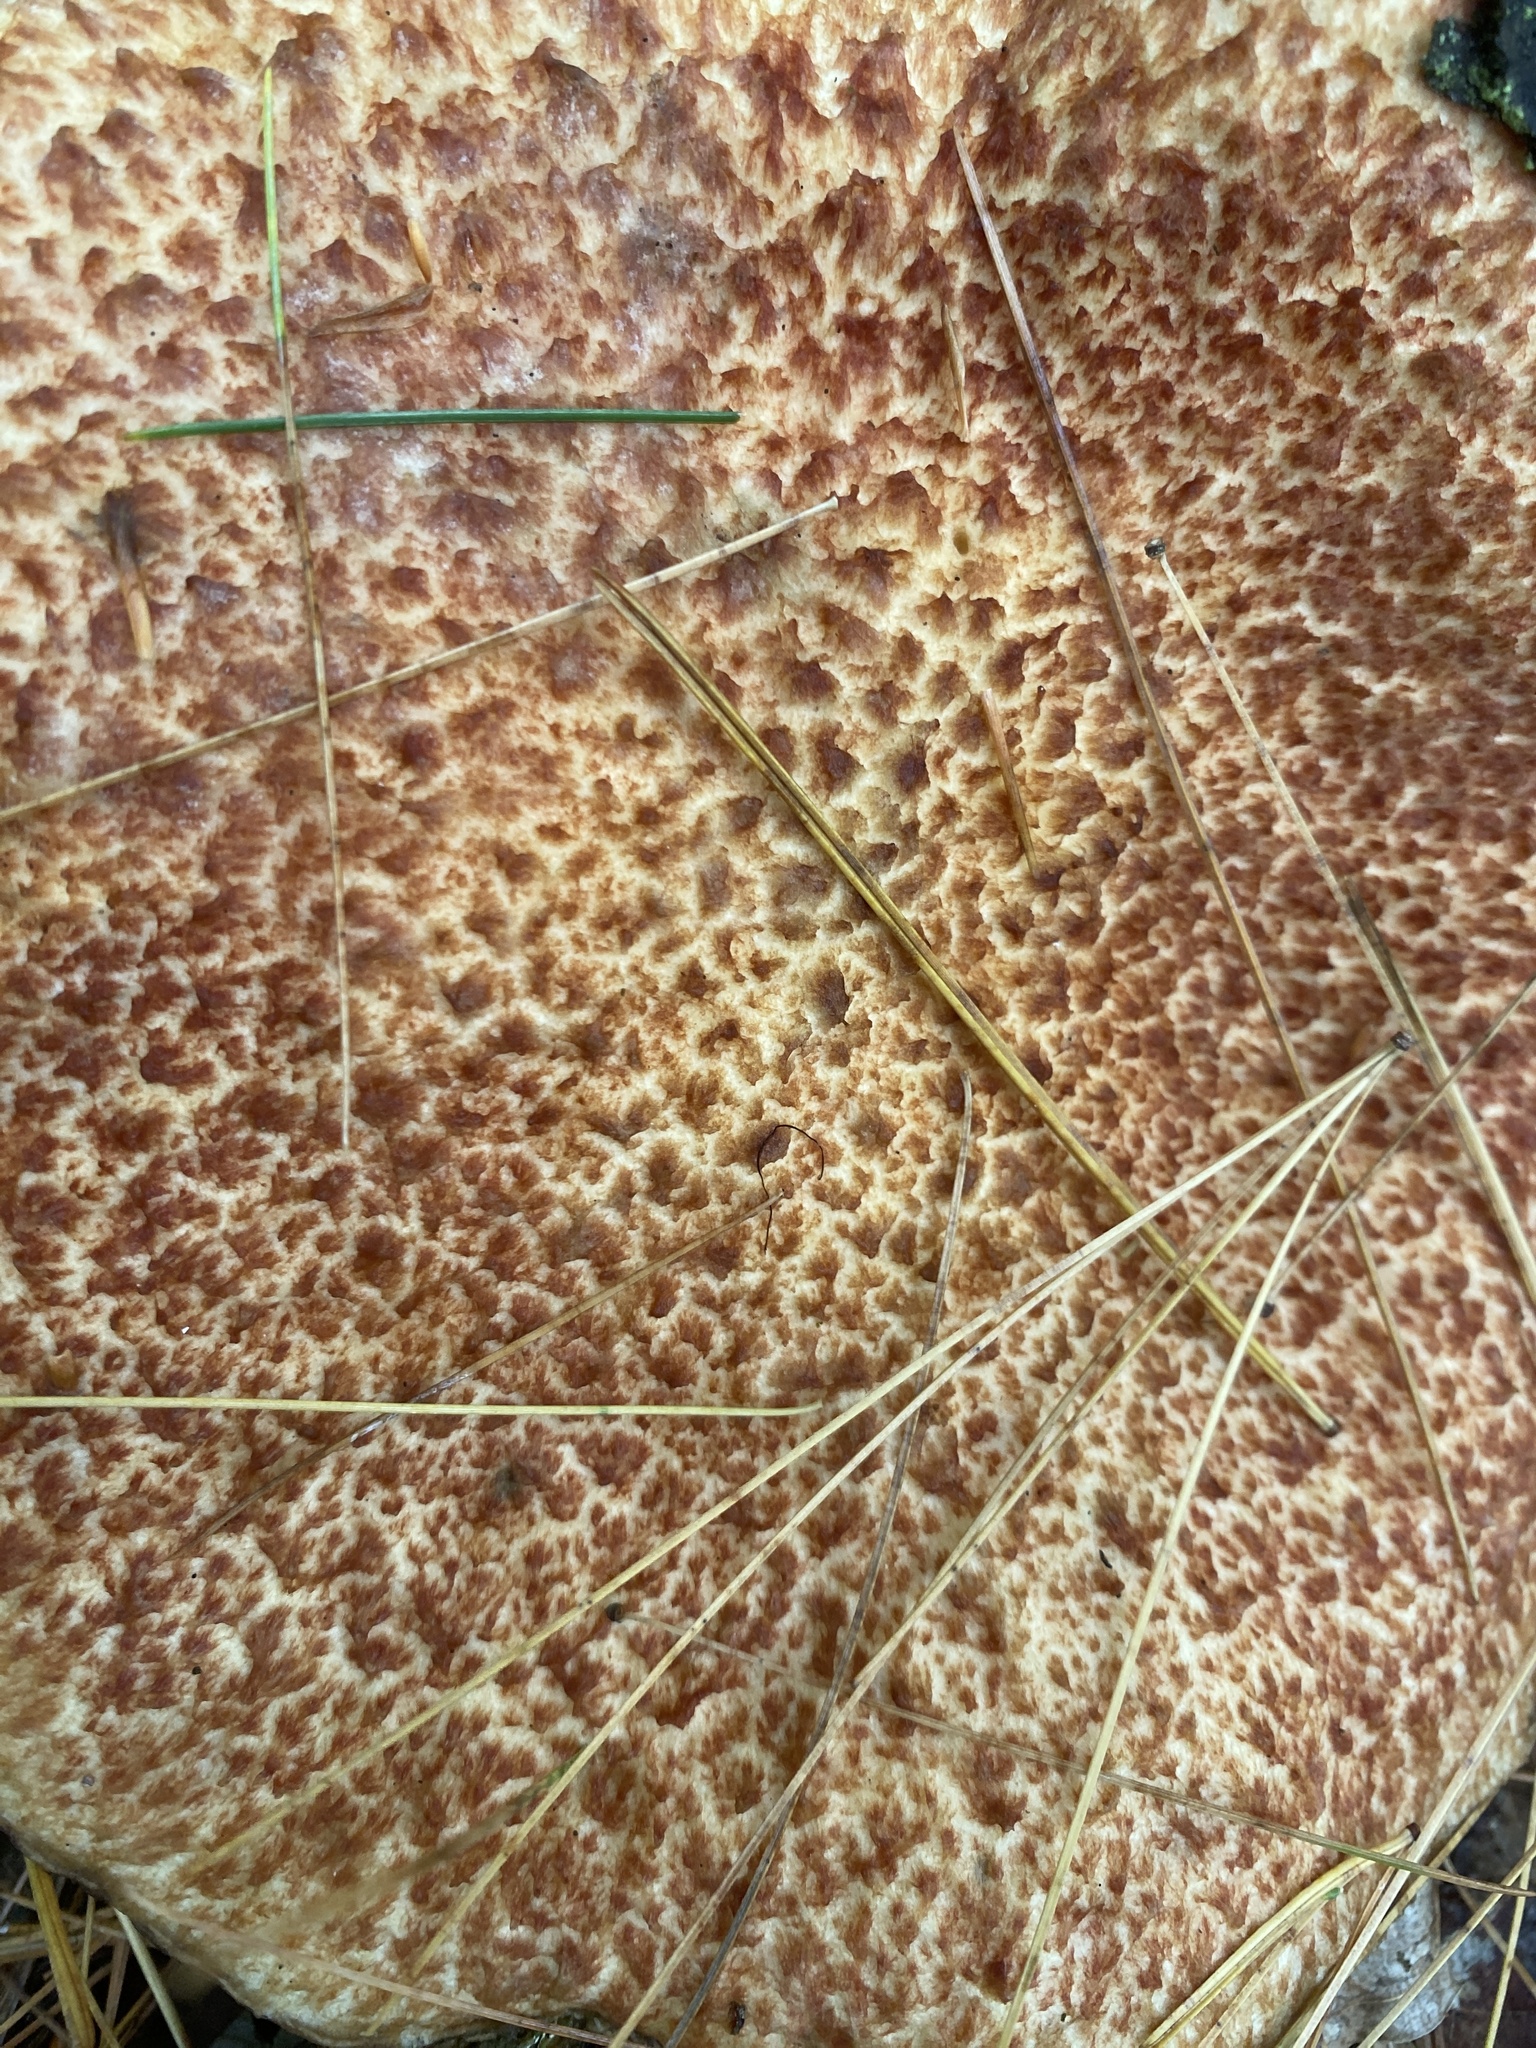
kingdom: Fungi
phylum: Basidiomycota
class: Agaricomycetes
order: Boletales
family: Suillaceae
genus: Suillus
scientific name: Suillus spraguei
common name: Painted suillus
